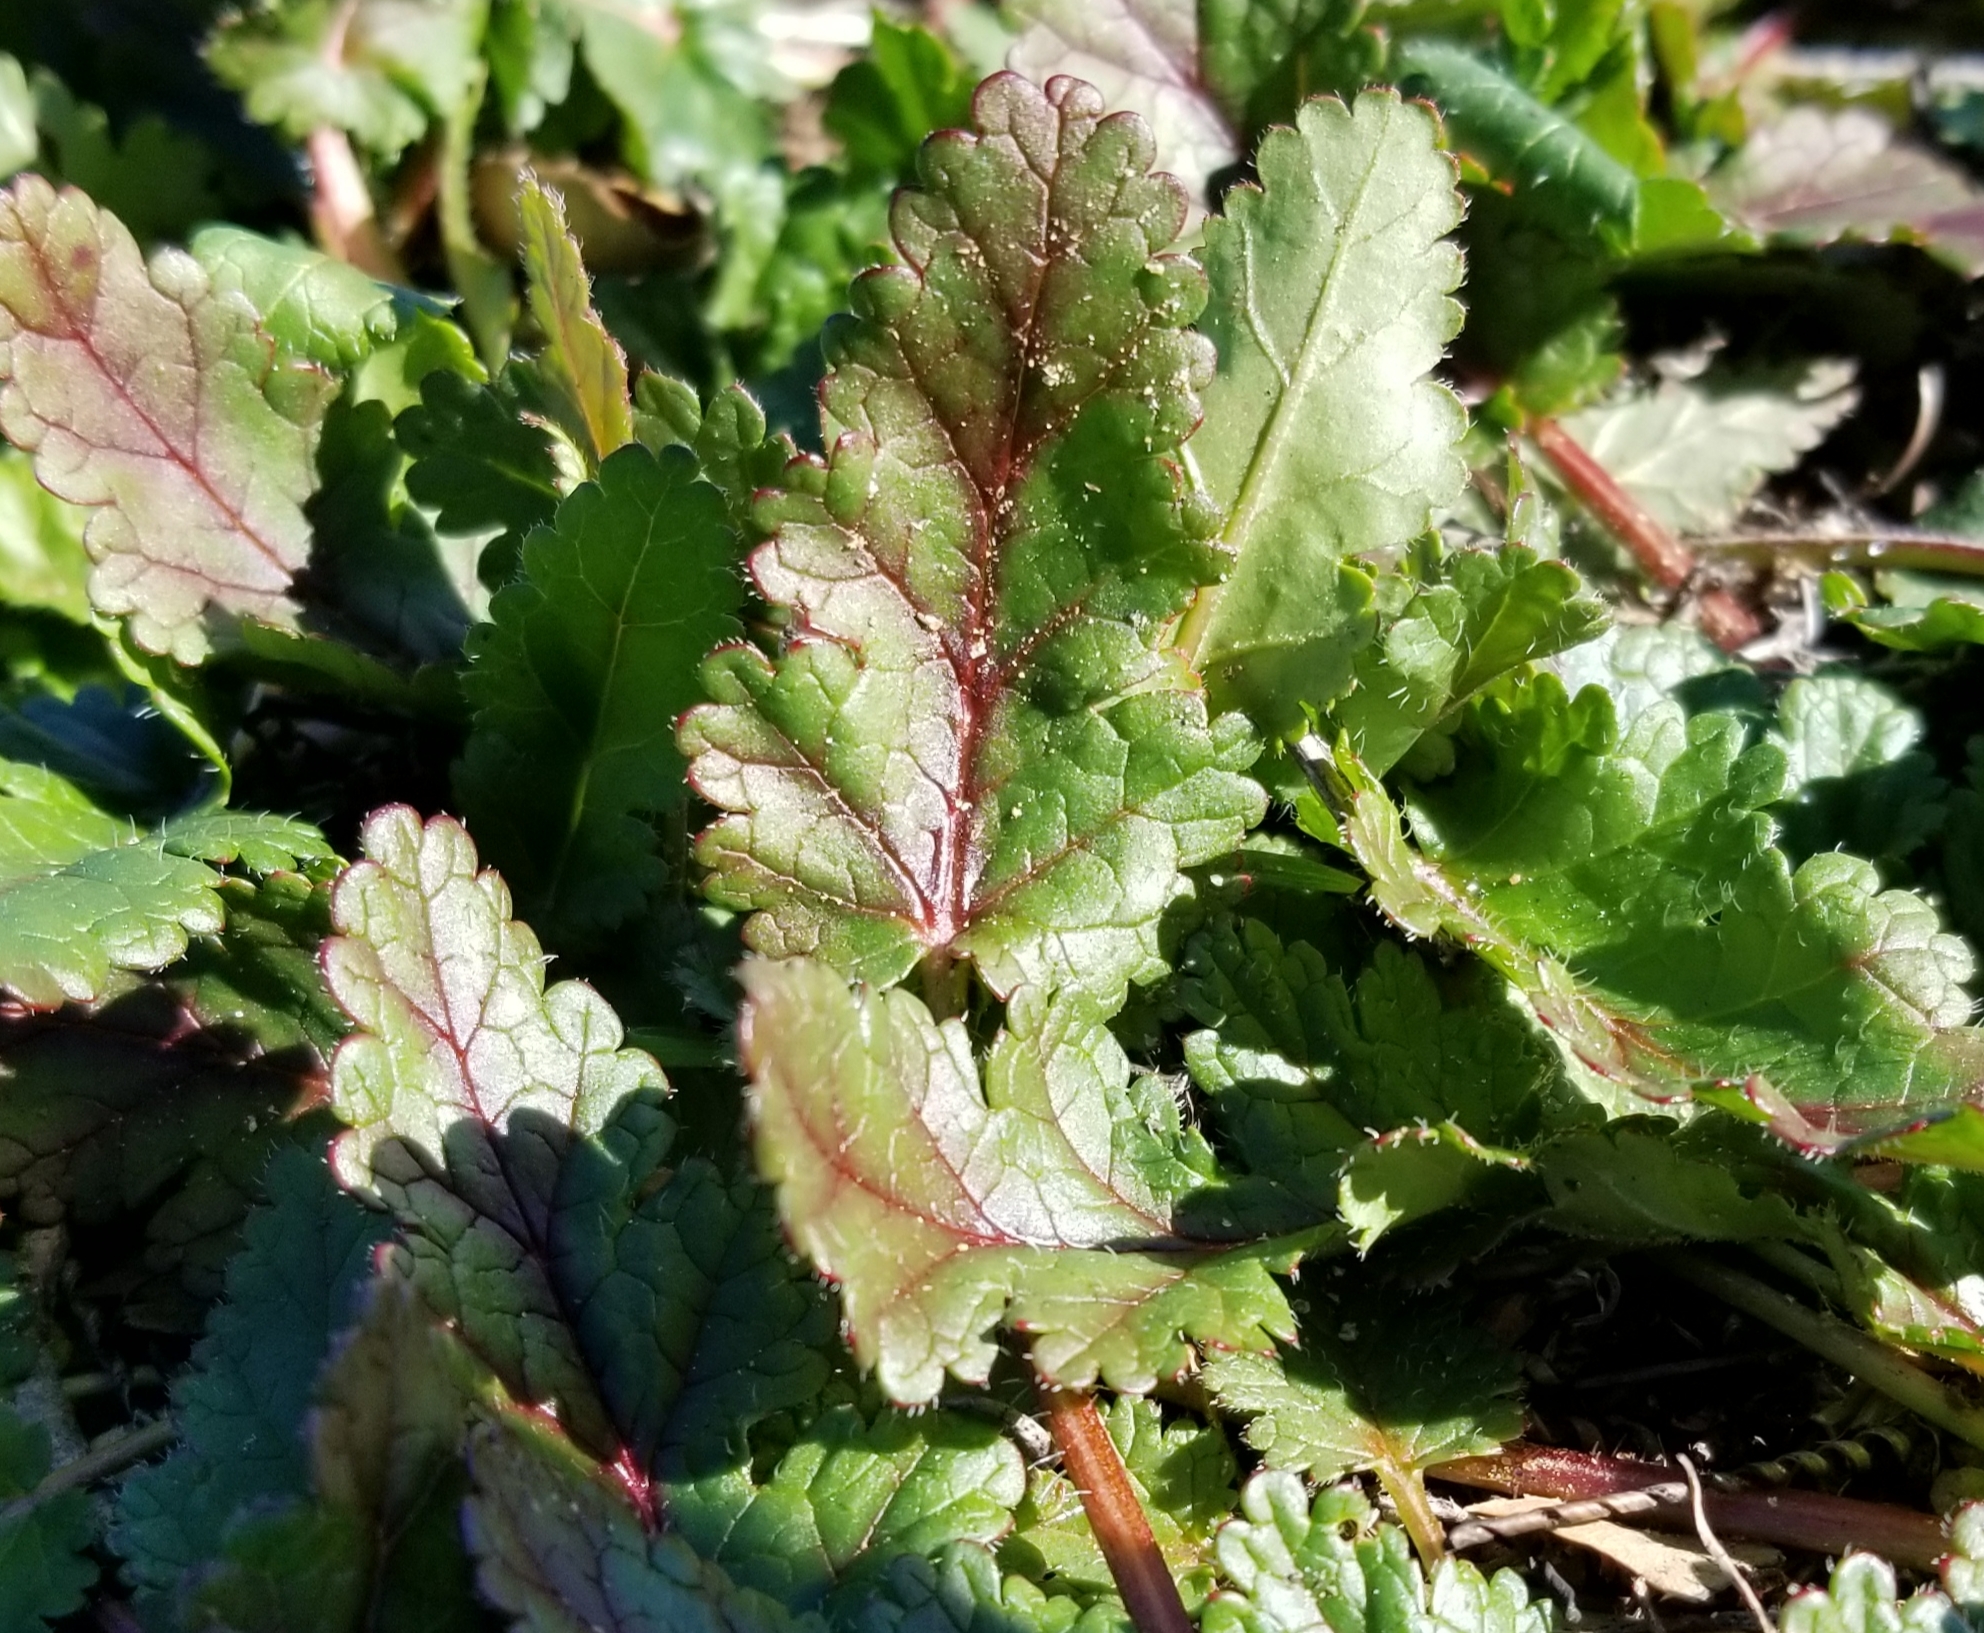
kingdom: Plantae
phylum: Tracheophyta
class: Magnoliopsida
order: Geraniales
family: Geraniaceae
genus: Erodium
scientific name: Erodium
